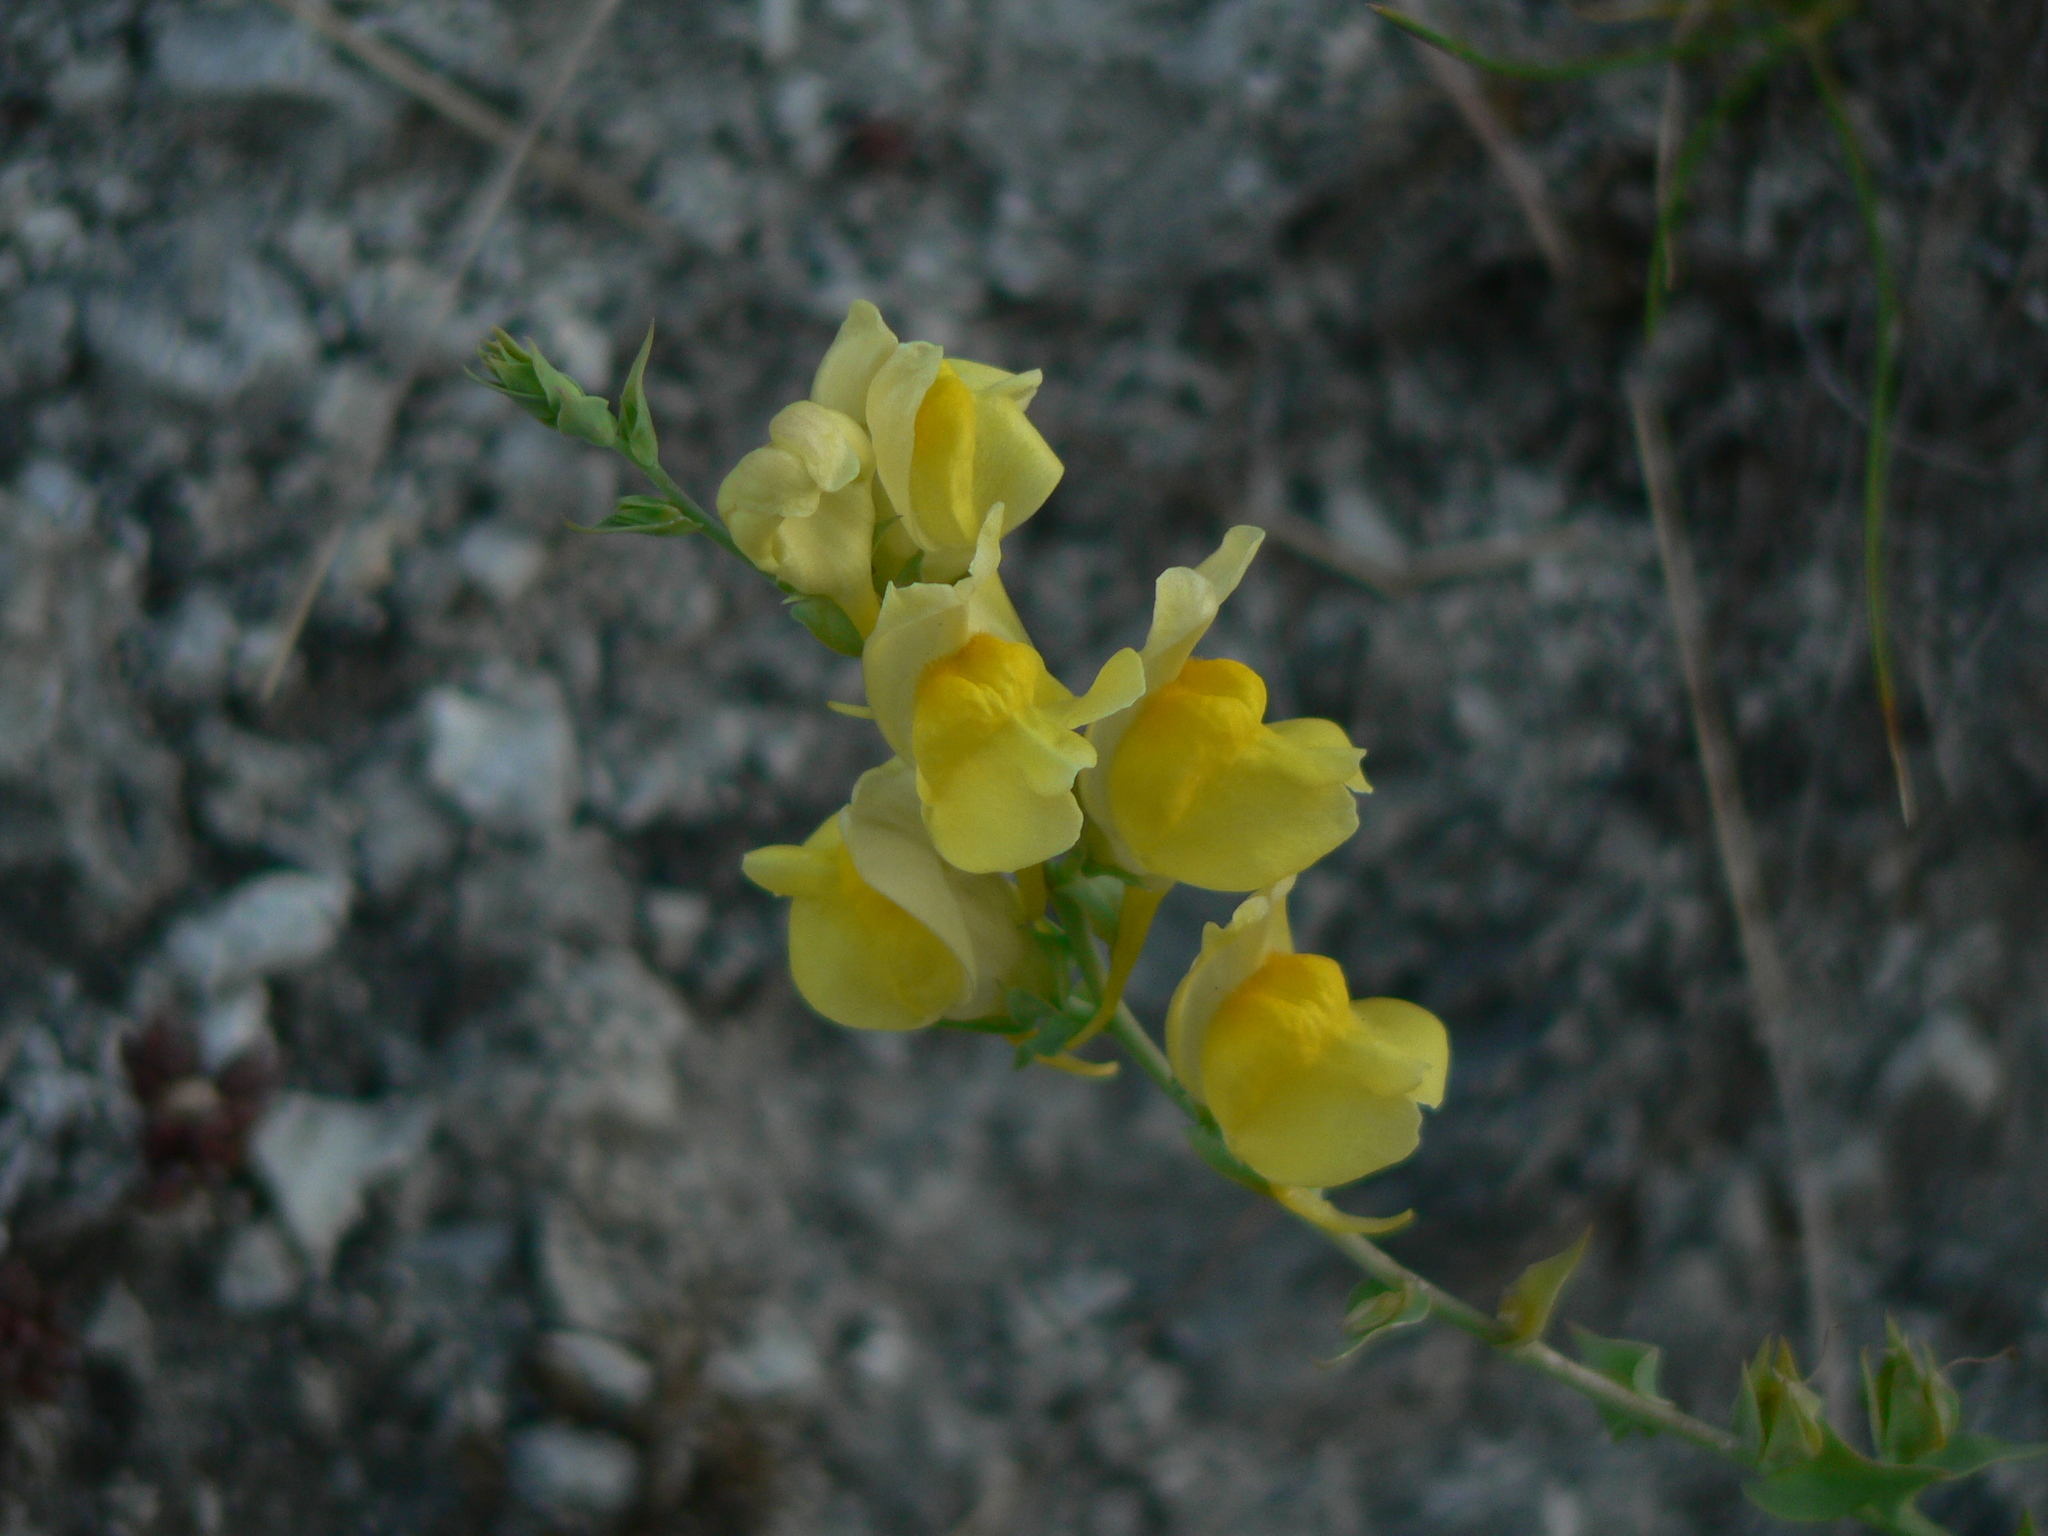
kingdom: Plantae
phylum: Tracheophyta
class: Magnoliopsida
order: Lamiales
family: Plantaginaceae
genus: Linaria
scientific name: Linaria dalmatica
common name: Dalmatian toadflax
